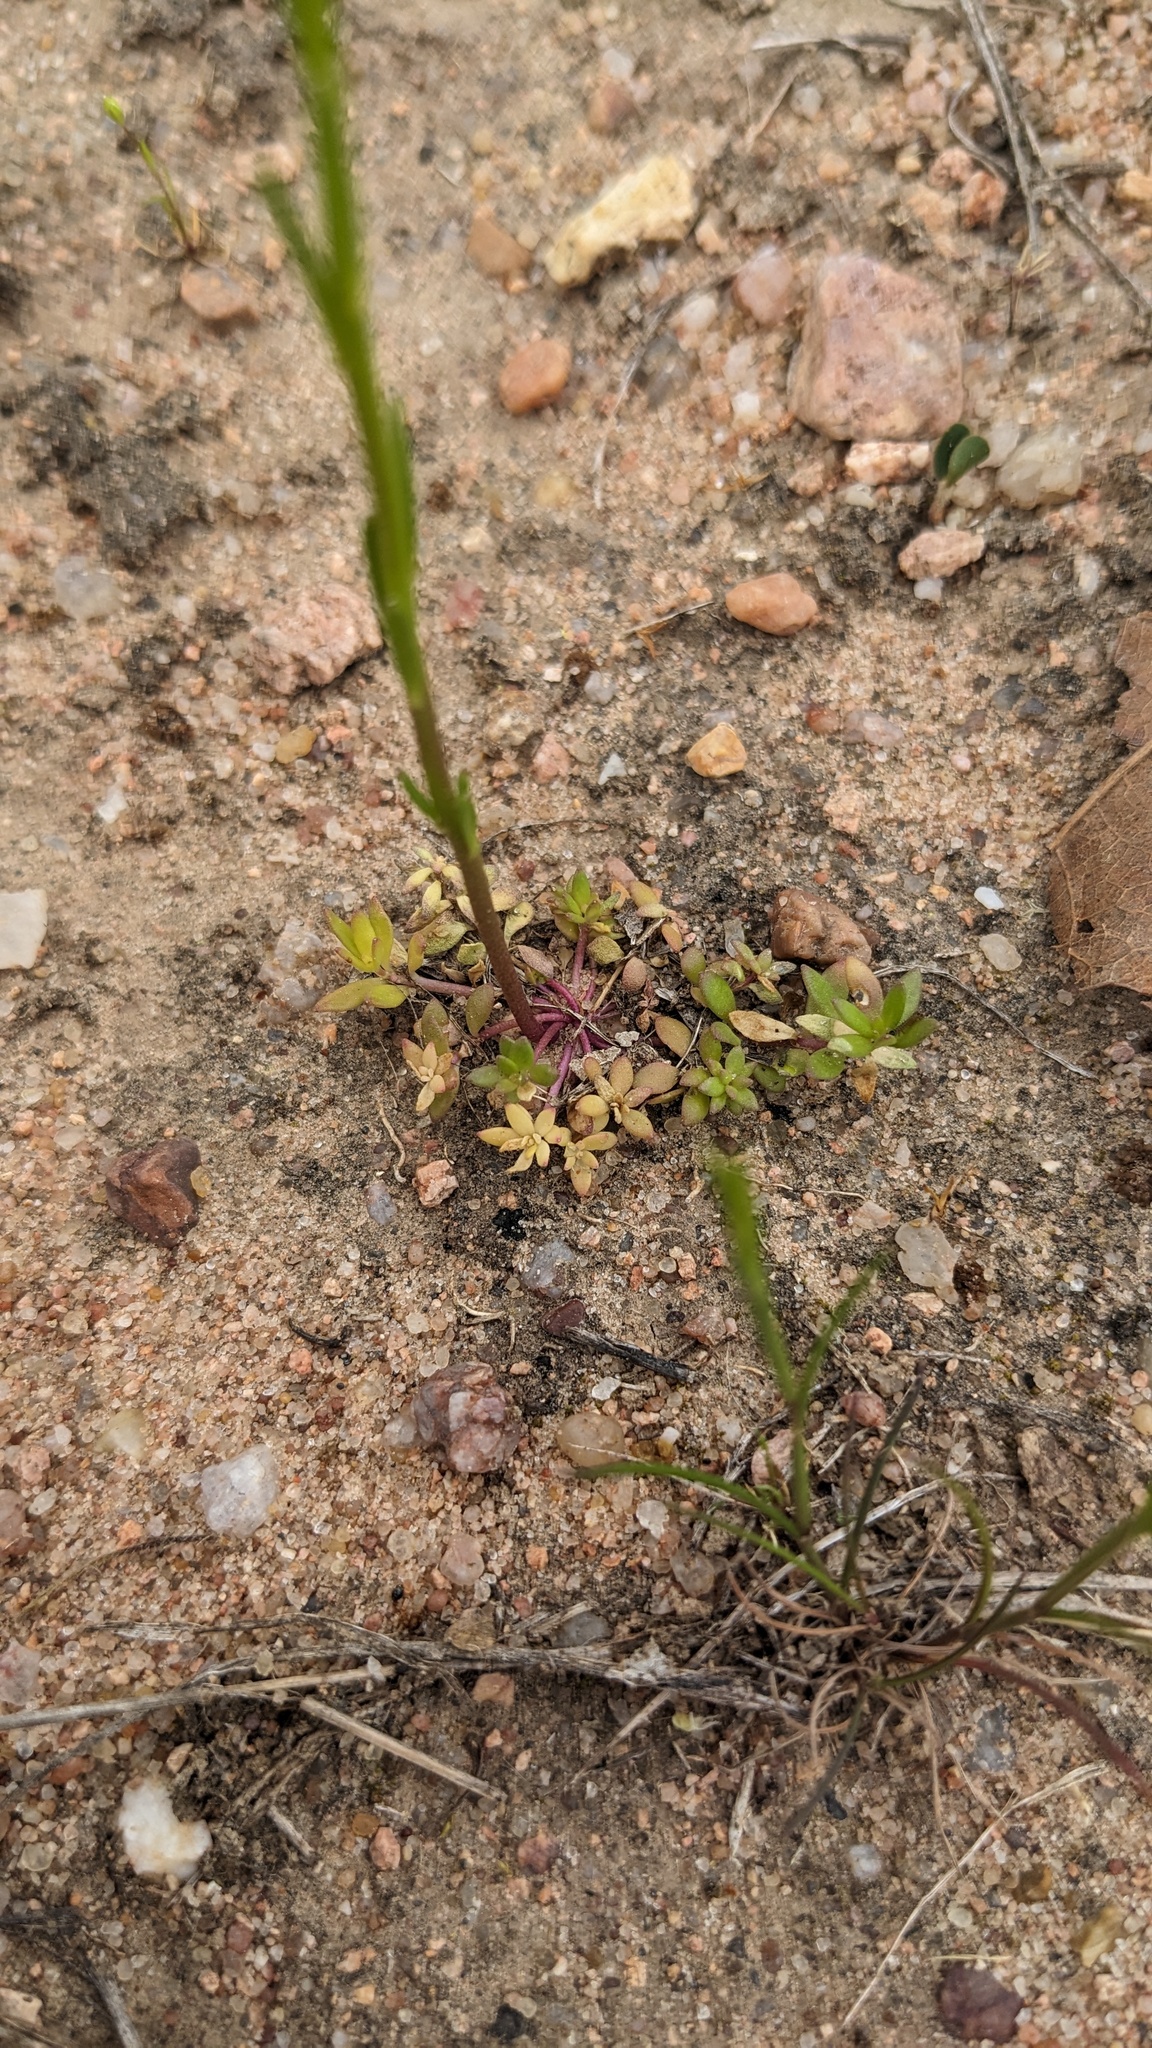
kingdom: Plantae
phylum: Tracheophyta
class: Magnoliopsida
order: Lamiales
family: Plantaginaceae
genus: Nuttallanthus
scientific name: Nuttallanthus texanus
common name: Texas toadflax
